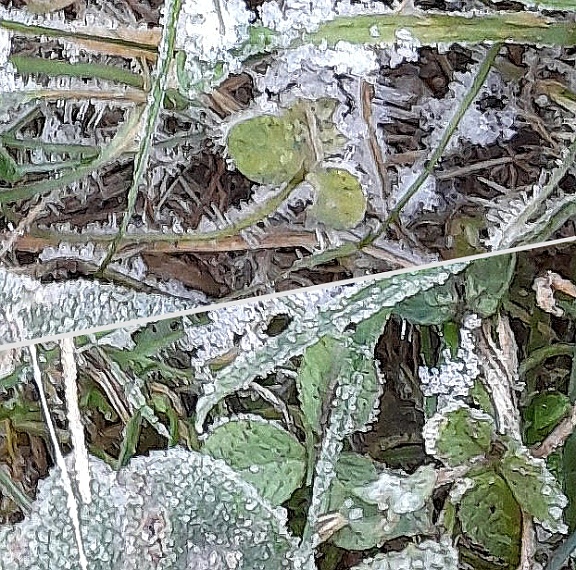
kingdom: Plantae
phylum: Tracheophyta
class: Magnoliopsida
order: Fabales
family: Fabaceae
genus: Trifolium
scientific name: Trifolium repens
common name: White clover
